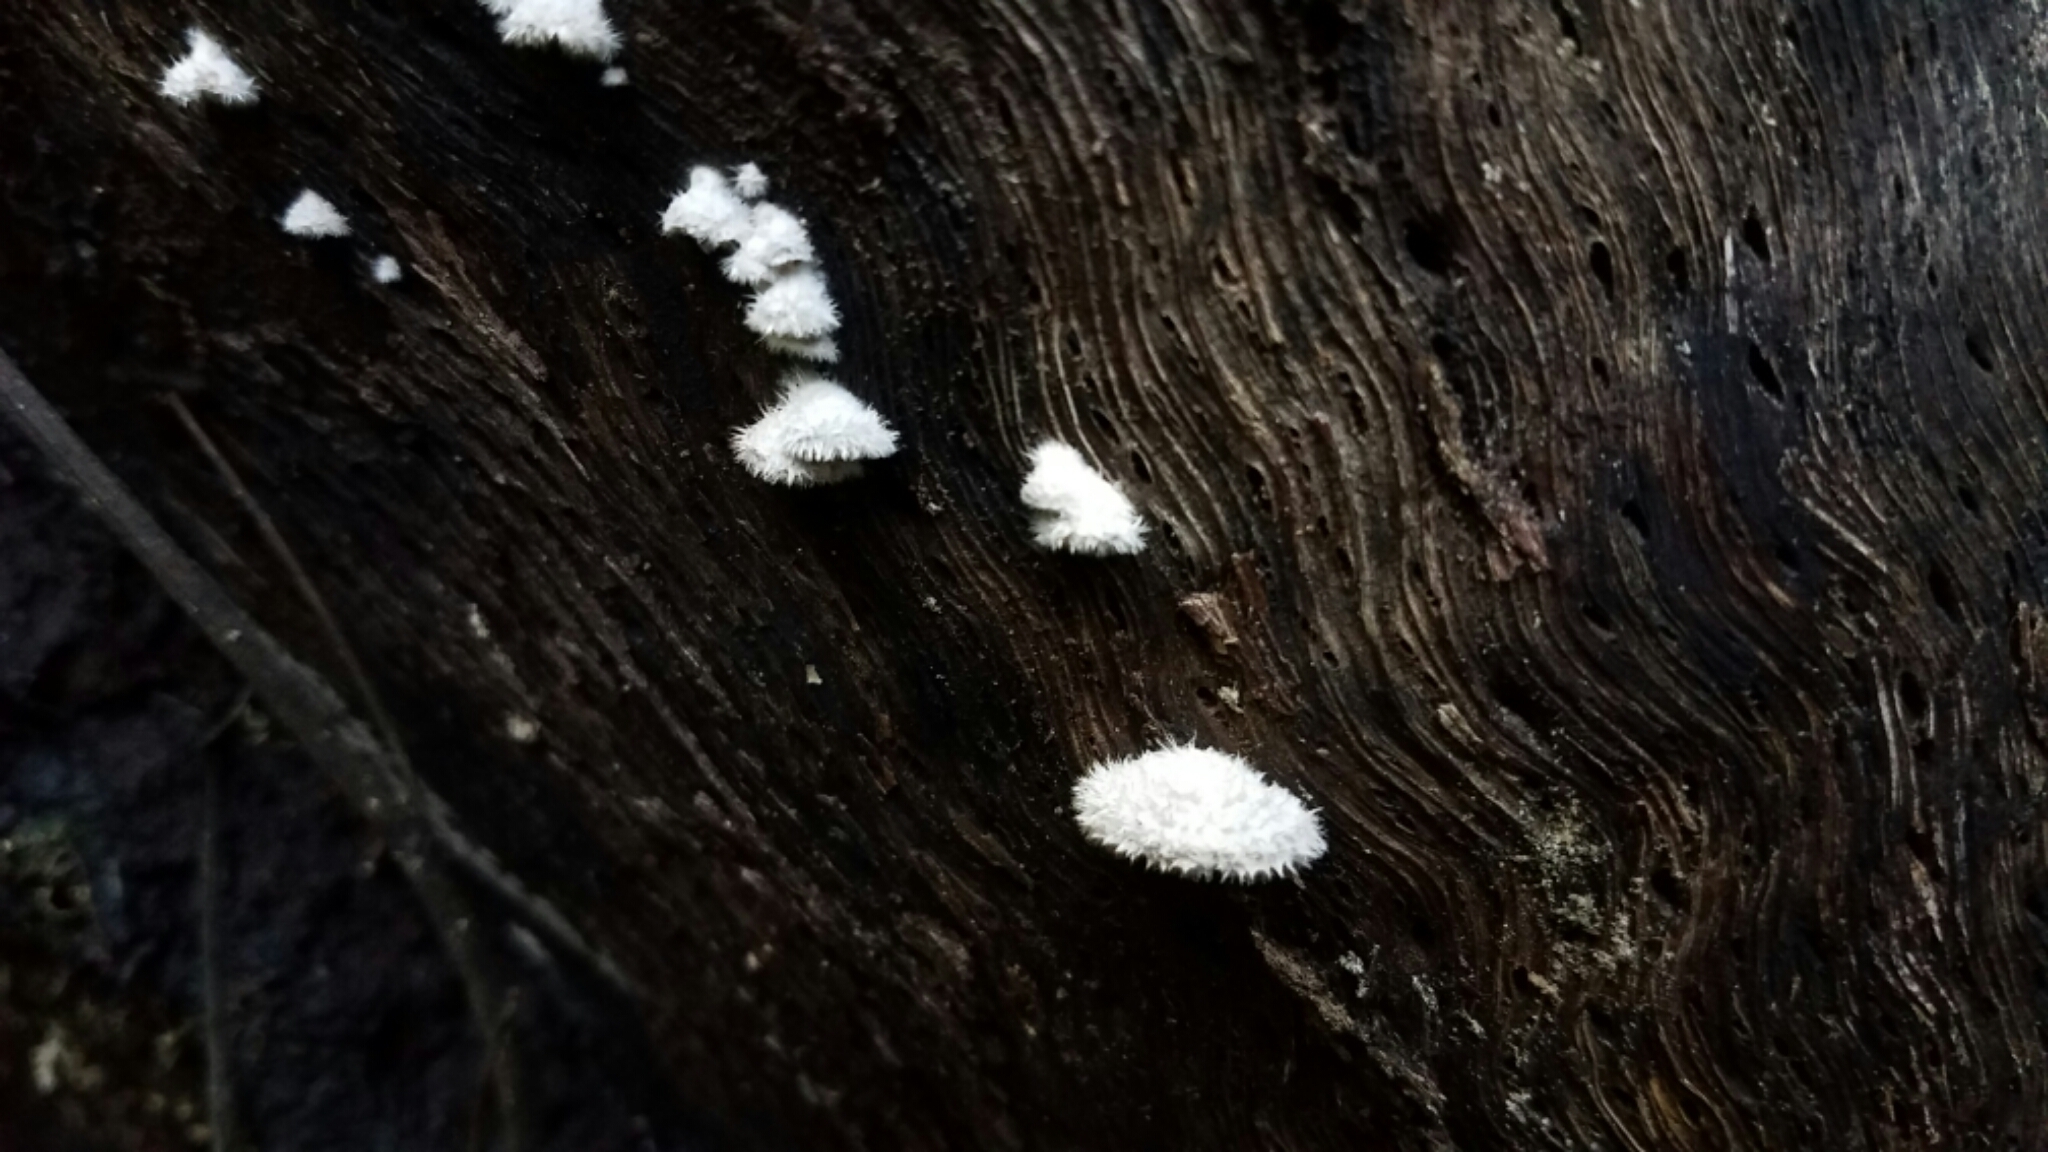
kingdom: Fungi
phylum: Basidiomycota
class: Agaricomycetes
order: Agaricales
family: Schizophyllaceae
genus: Schizophyllum
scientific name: Schizophyllum commune
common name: Common porecrust
